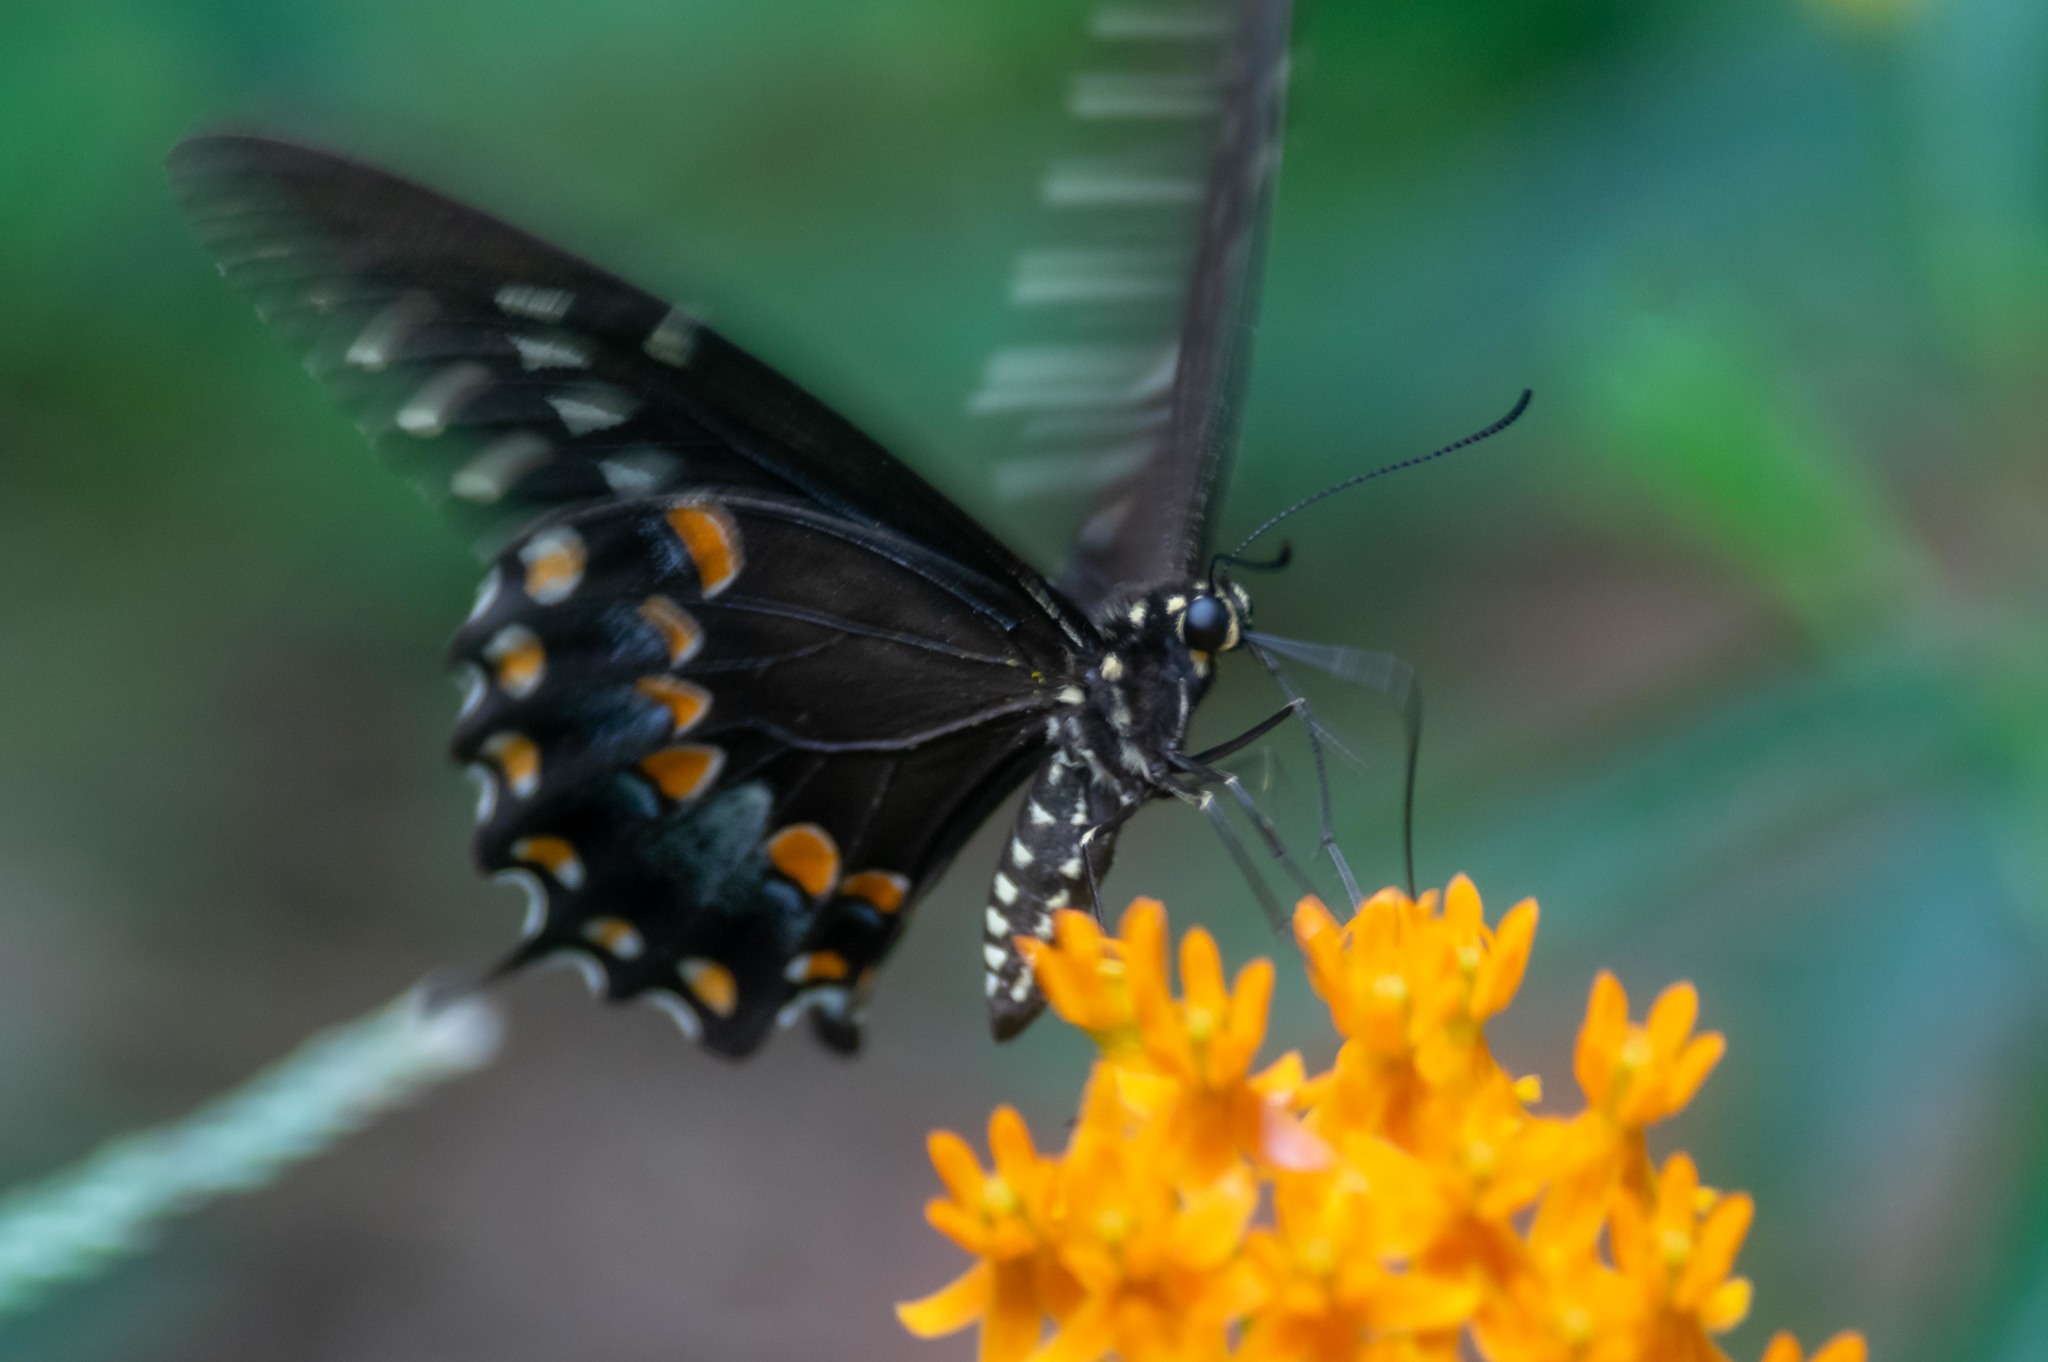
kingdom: Animalia
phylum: Arthropoda
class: Insecta
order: Lepidoptera
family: Papilionidae
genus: Papilio
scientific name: Papilio troilus
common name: Spicebush swallowtail
